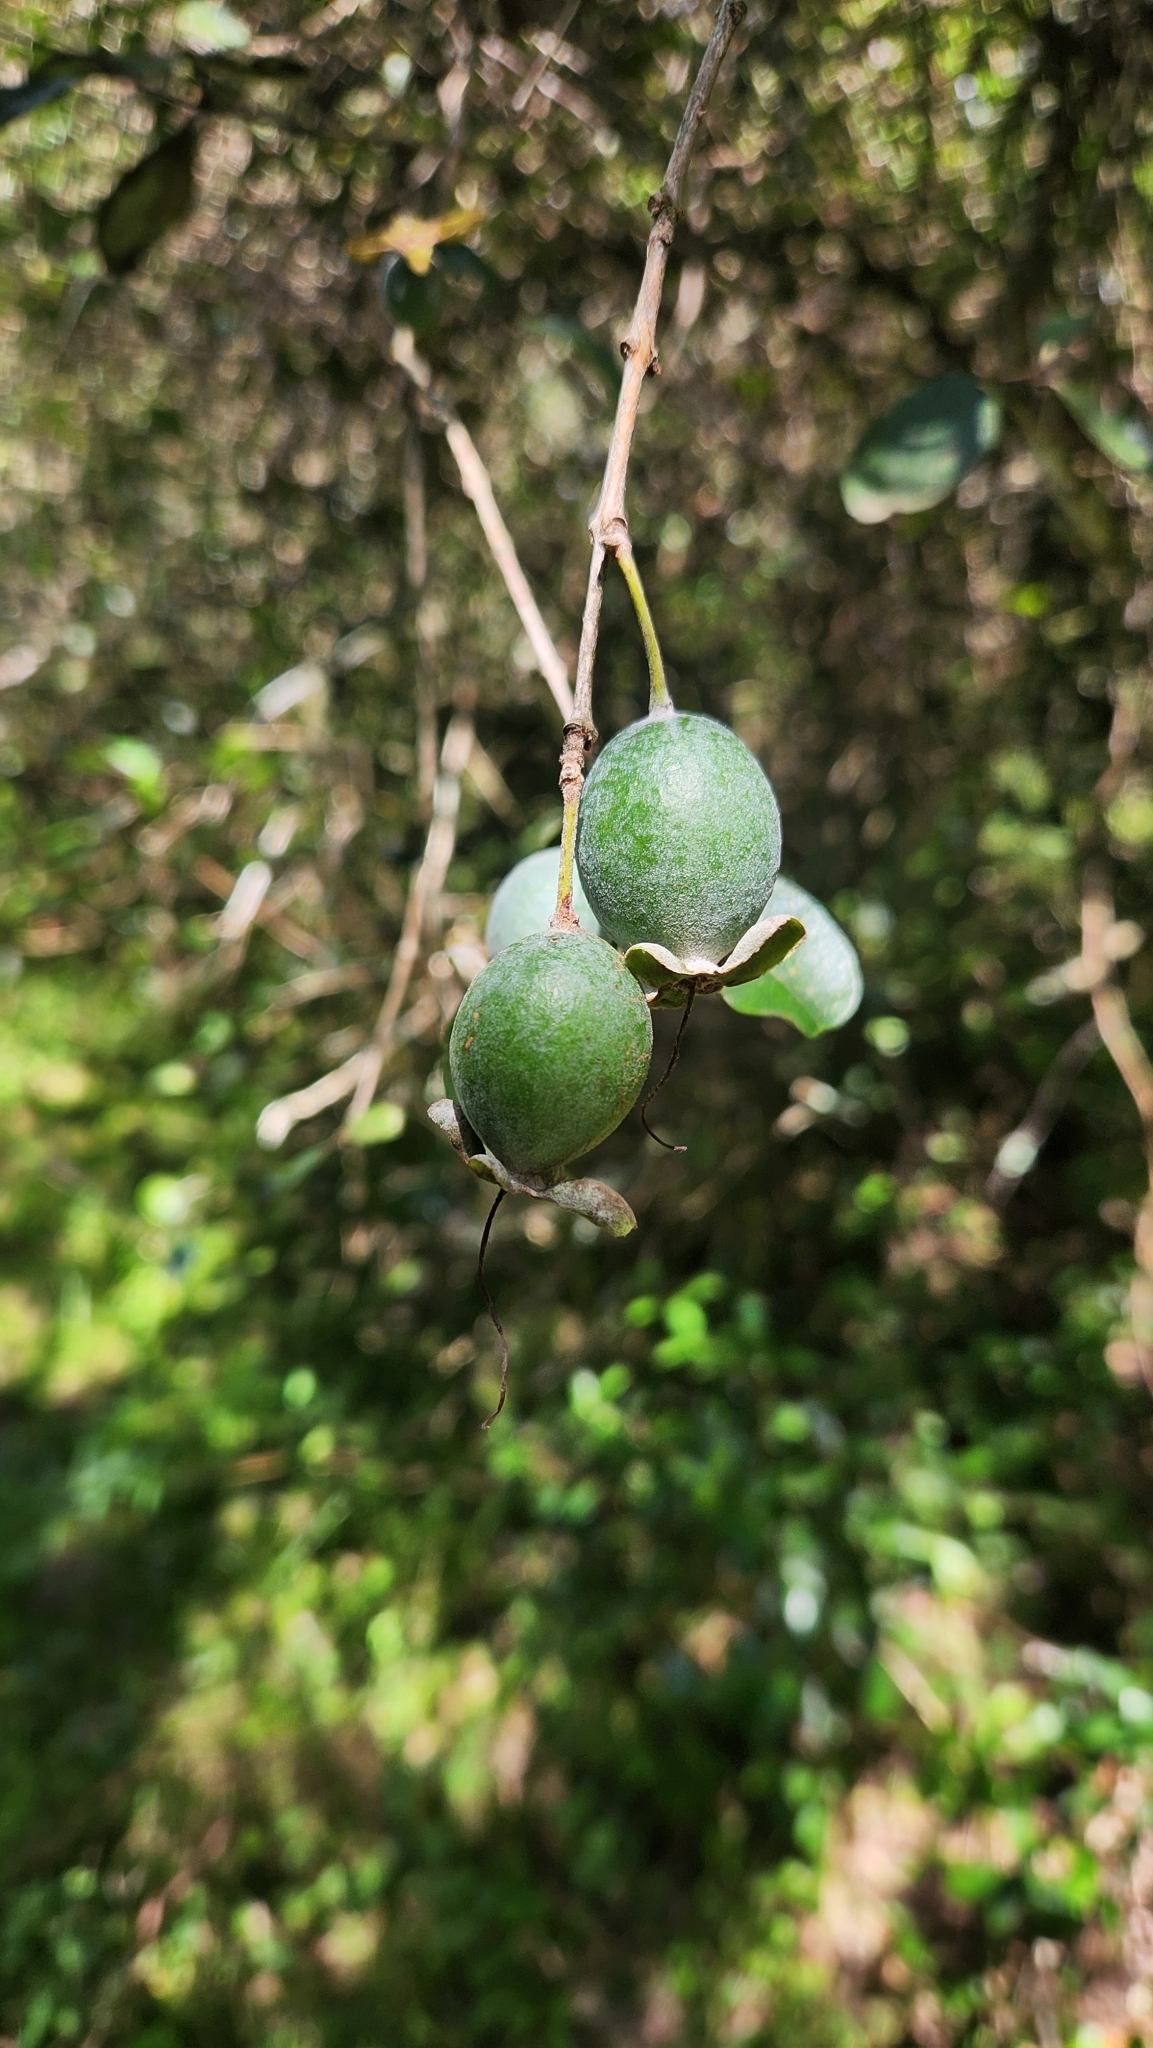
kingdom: Plantae
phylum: Tracheophyta
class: Magnoliopsida
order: Myrtales
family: Myrtaceae
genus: Feijoa
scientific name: Feijoa sellowiana
